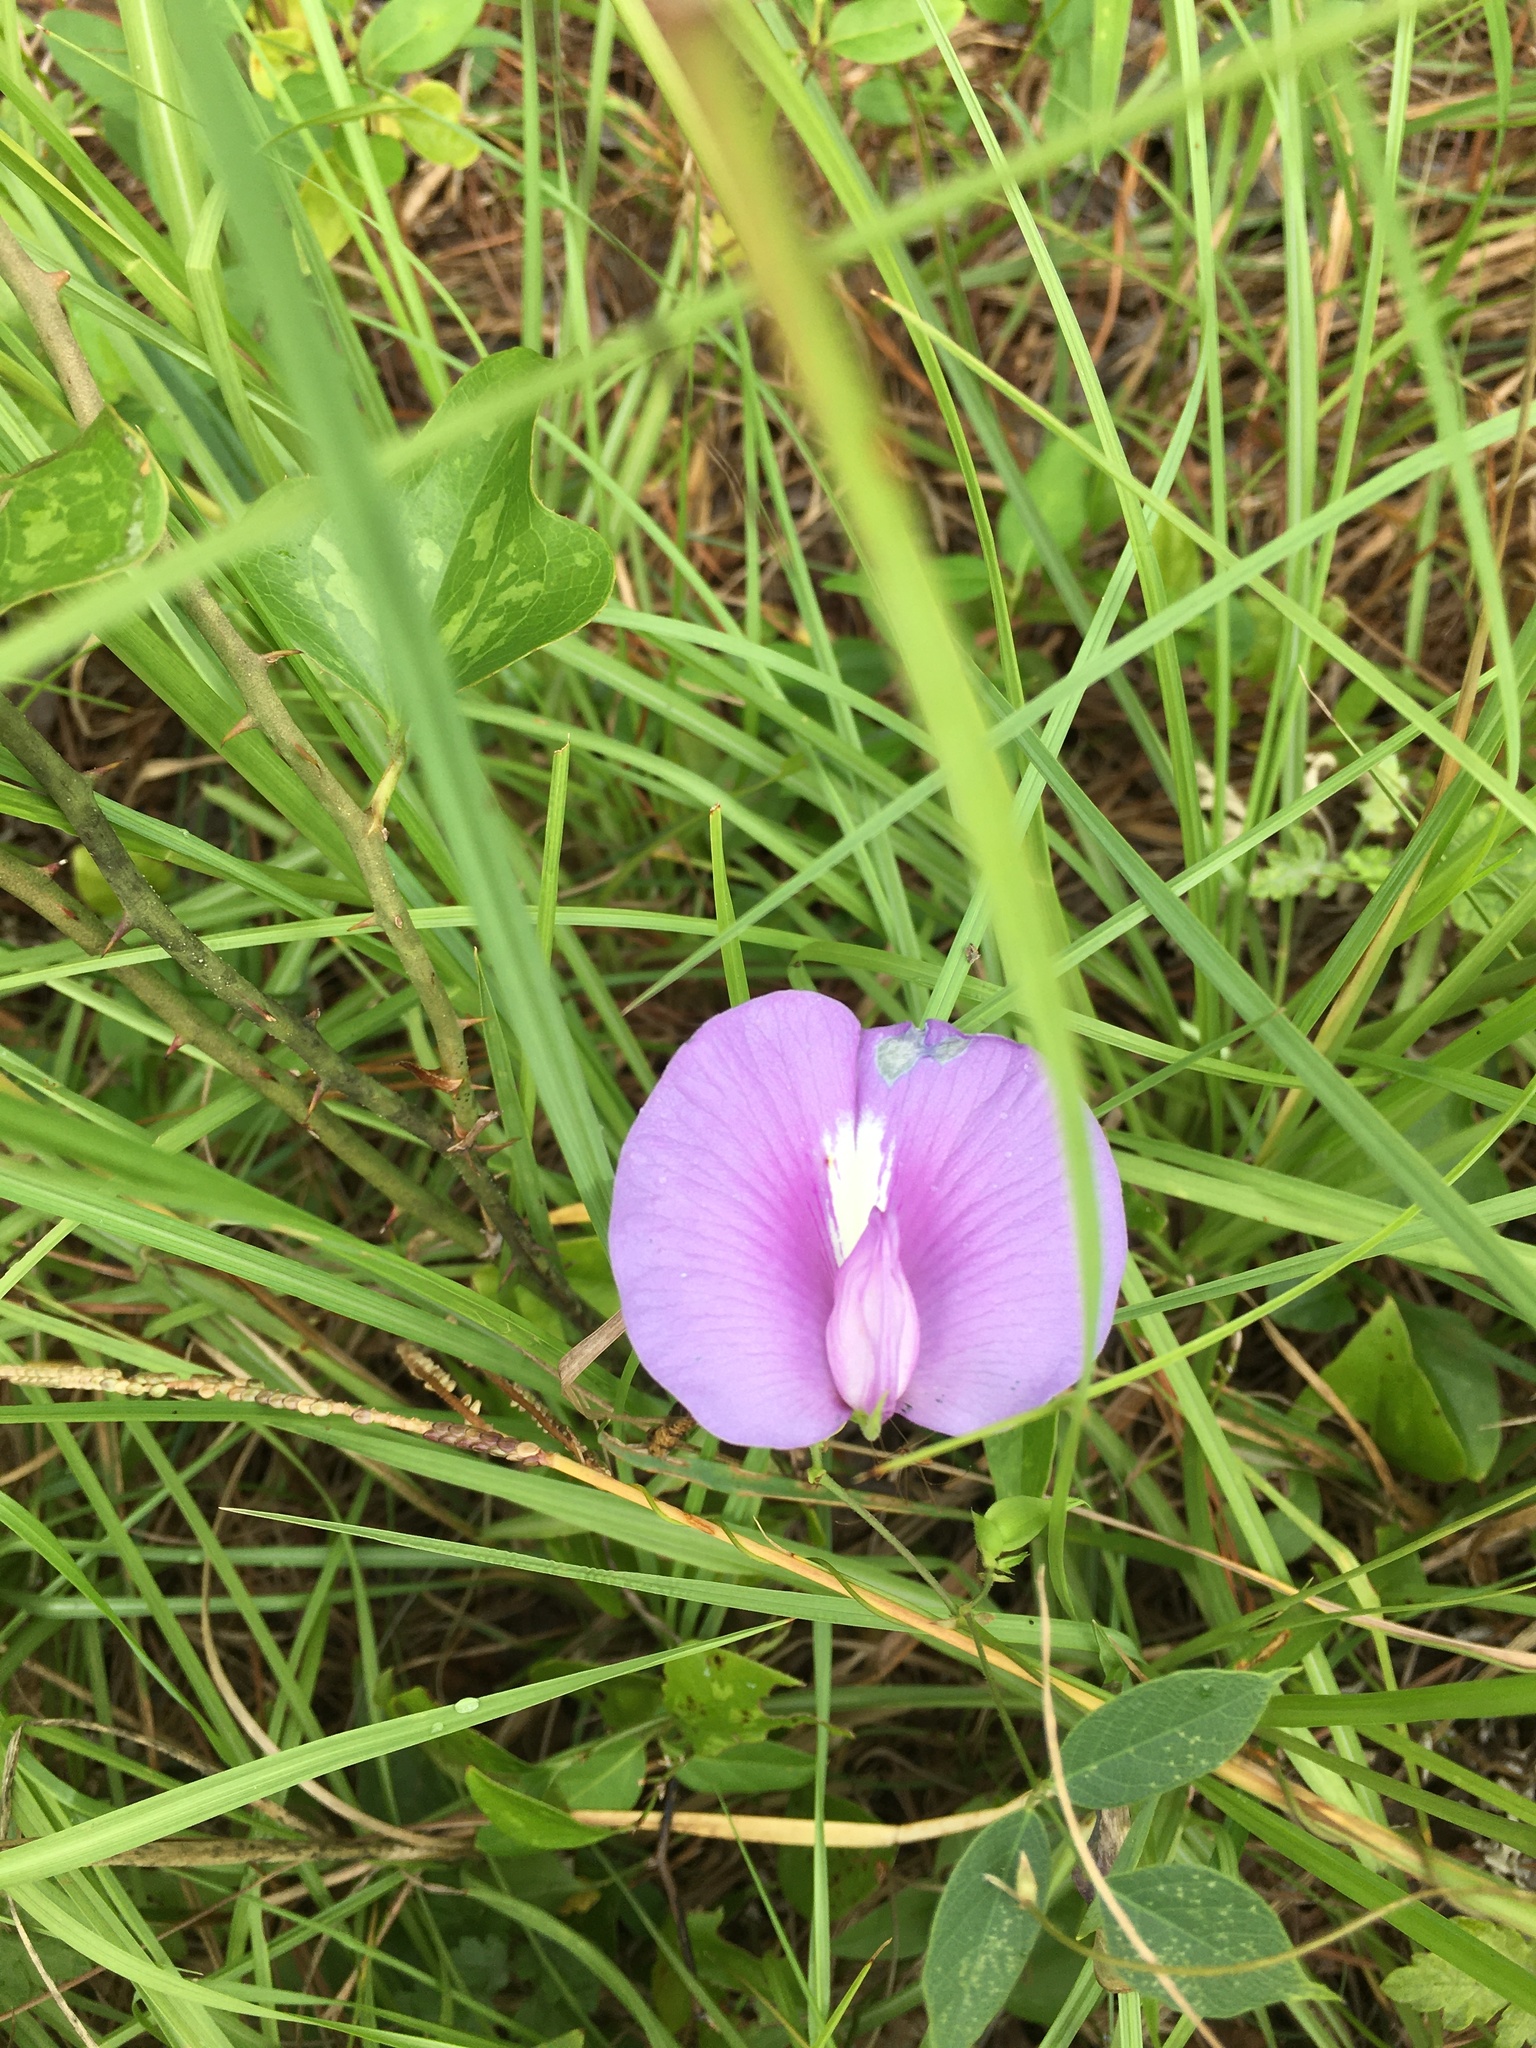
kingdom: Plantae
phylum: Tracheophyta
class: Magnoliopsida
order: Fabales
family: Fabaceae
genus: Centrosema
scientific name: Centrosema virginianum
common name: Butterfly-pea
